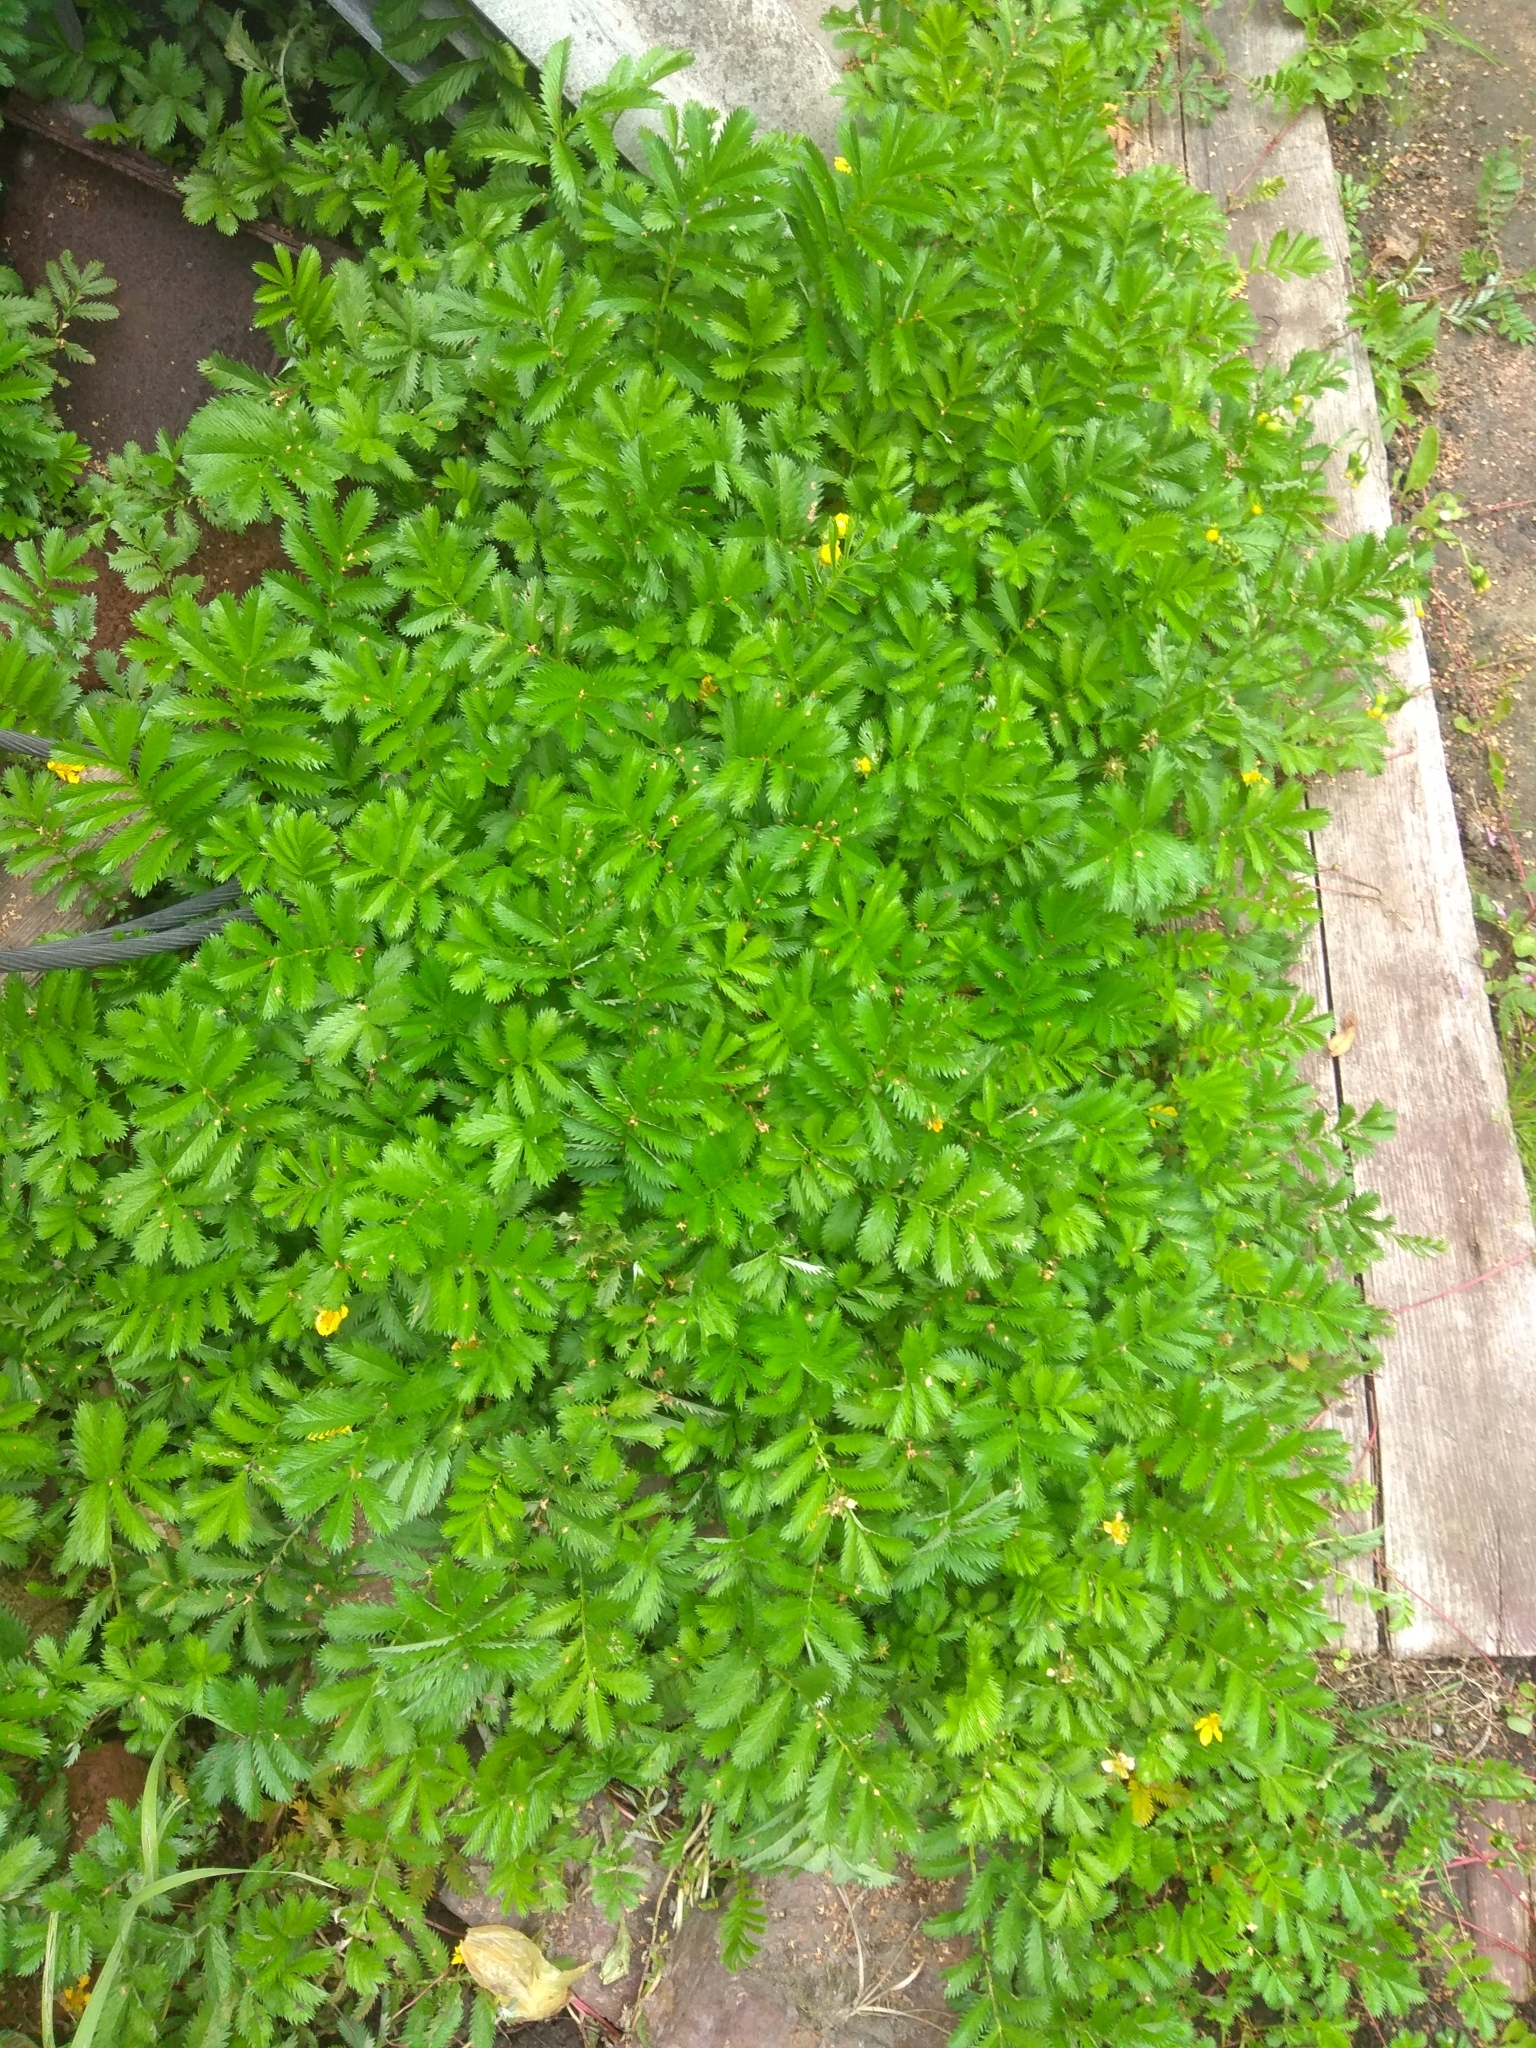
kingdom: Plantae
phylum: Tracheophyta
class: Magnoliopsida
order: Rosales
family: Rosaceae
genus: Argentina
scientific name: Argentina anserina
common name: Common silverweed
